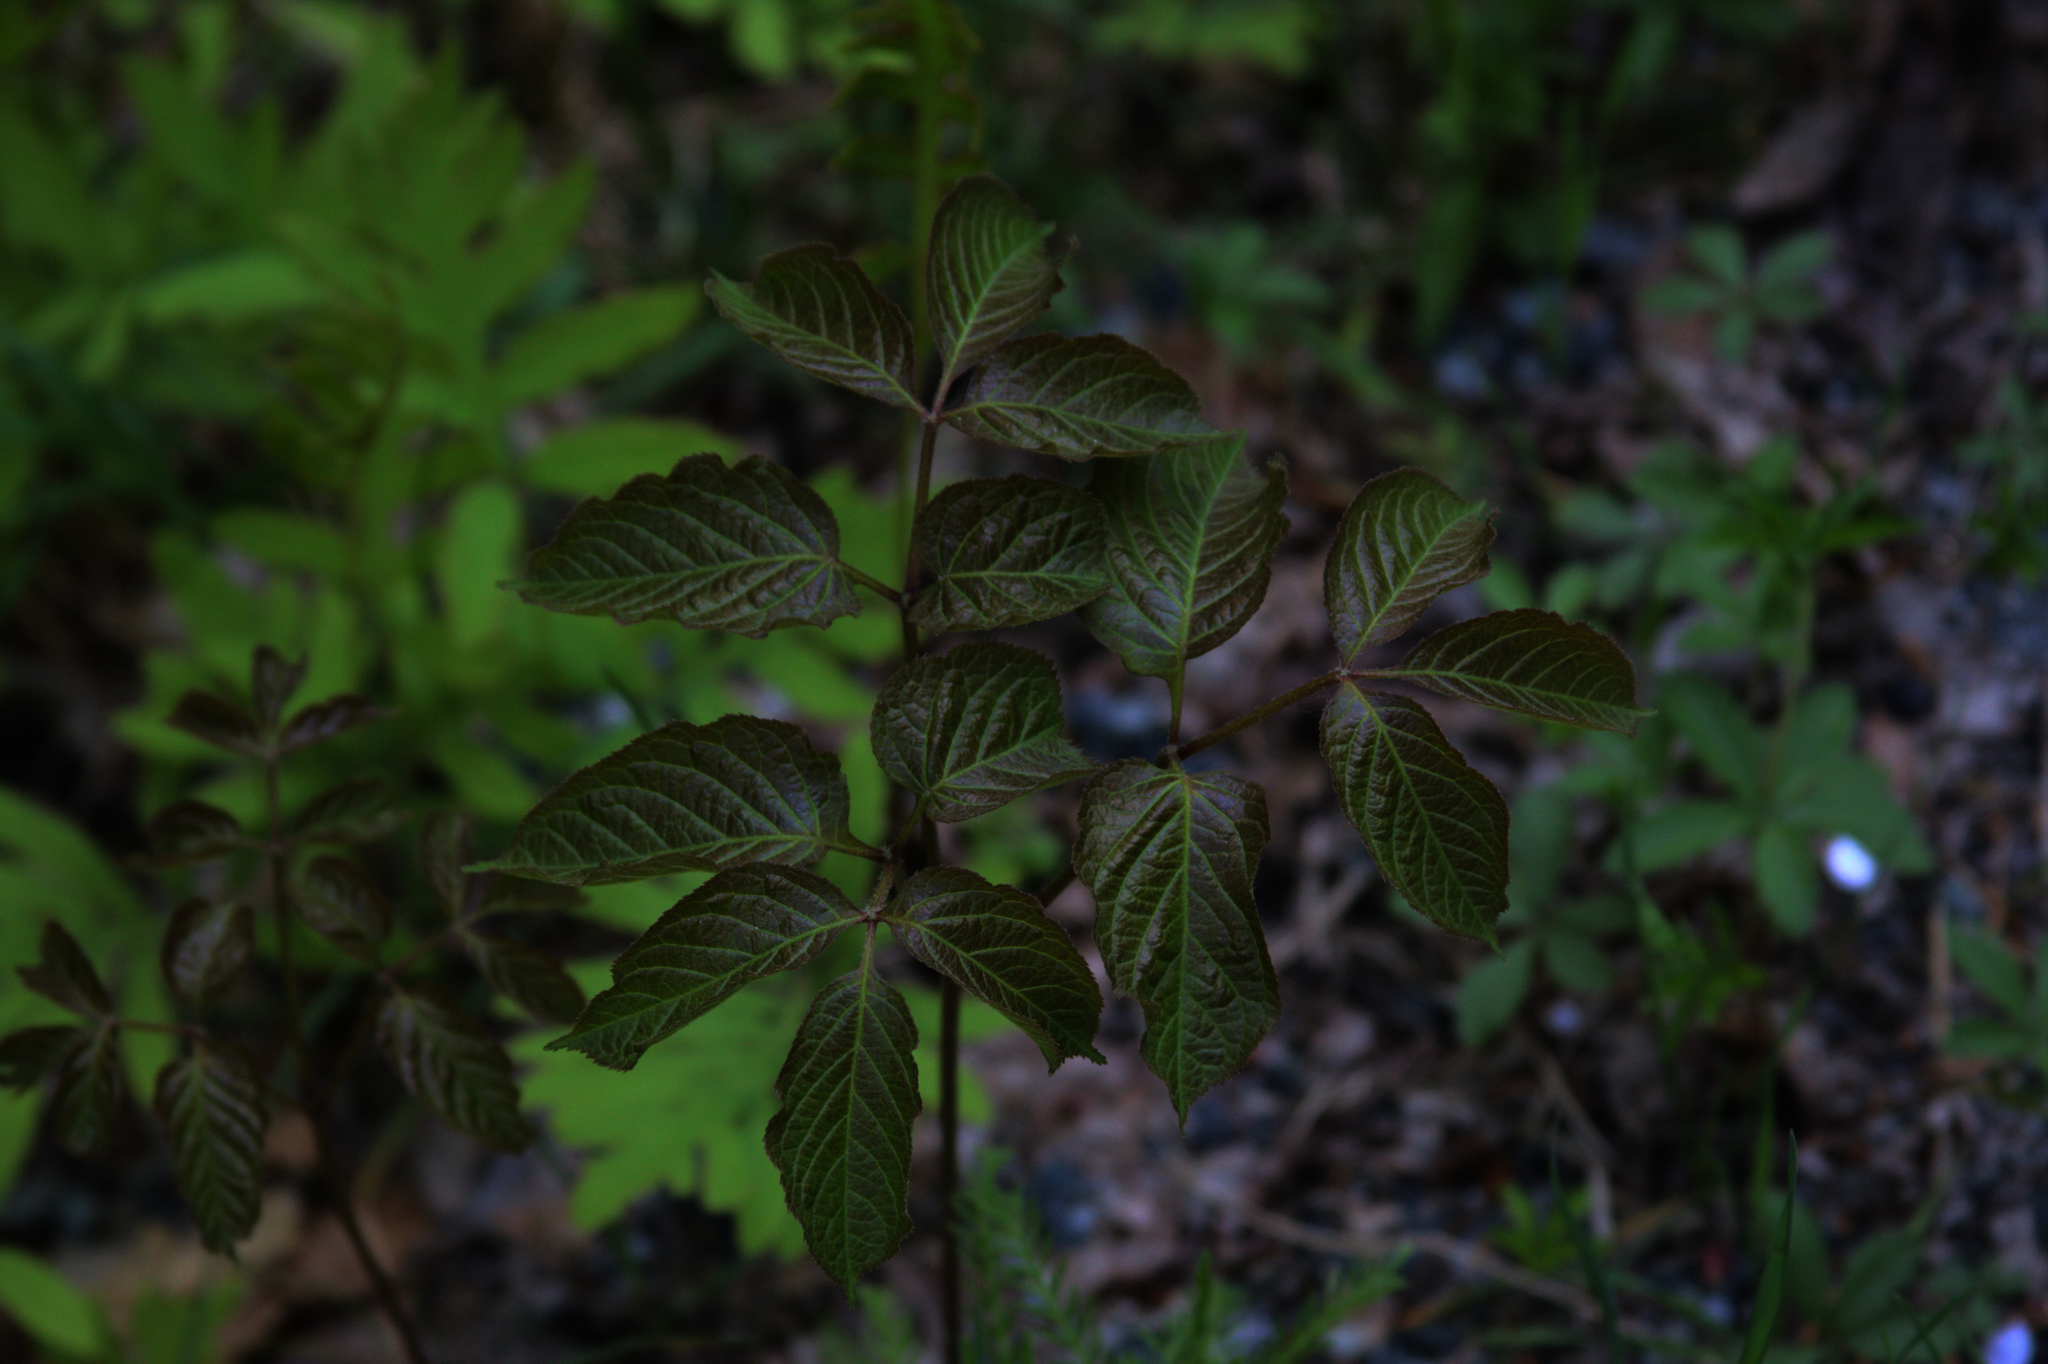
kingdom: Plantae
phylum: Tracheophyta
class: Magnoliopsida
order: Apiales
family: Araliaceae
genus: Aralia
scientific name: Aralia nudicaulis
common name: Wild sarsaparilla
